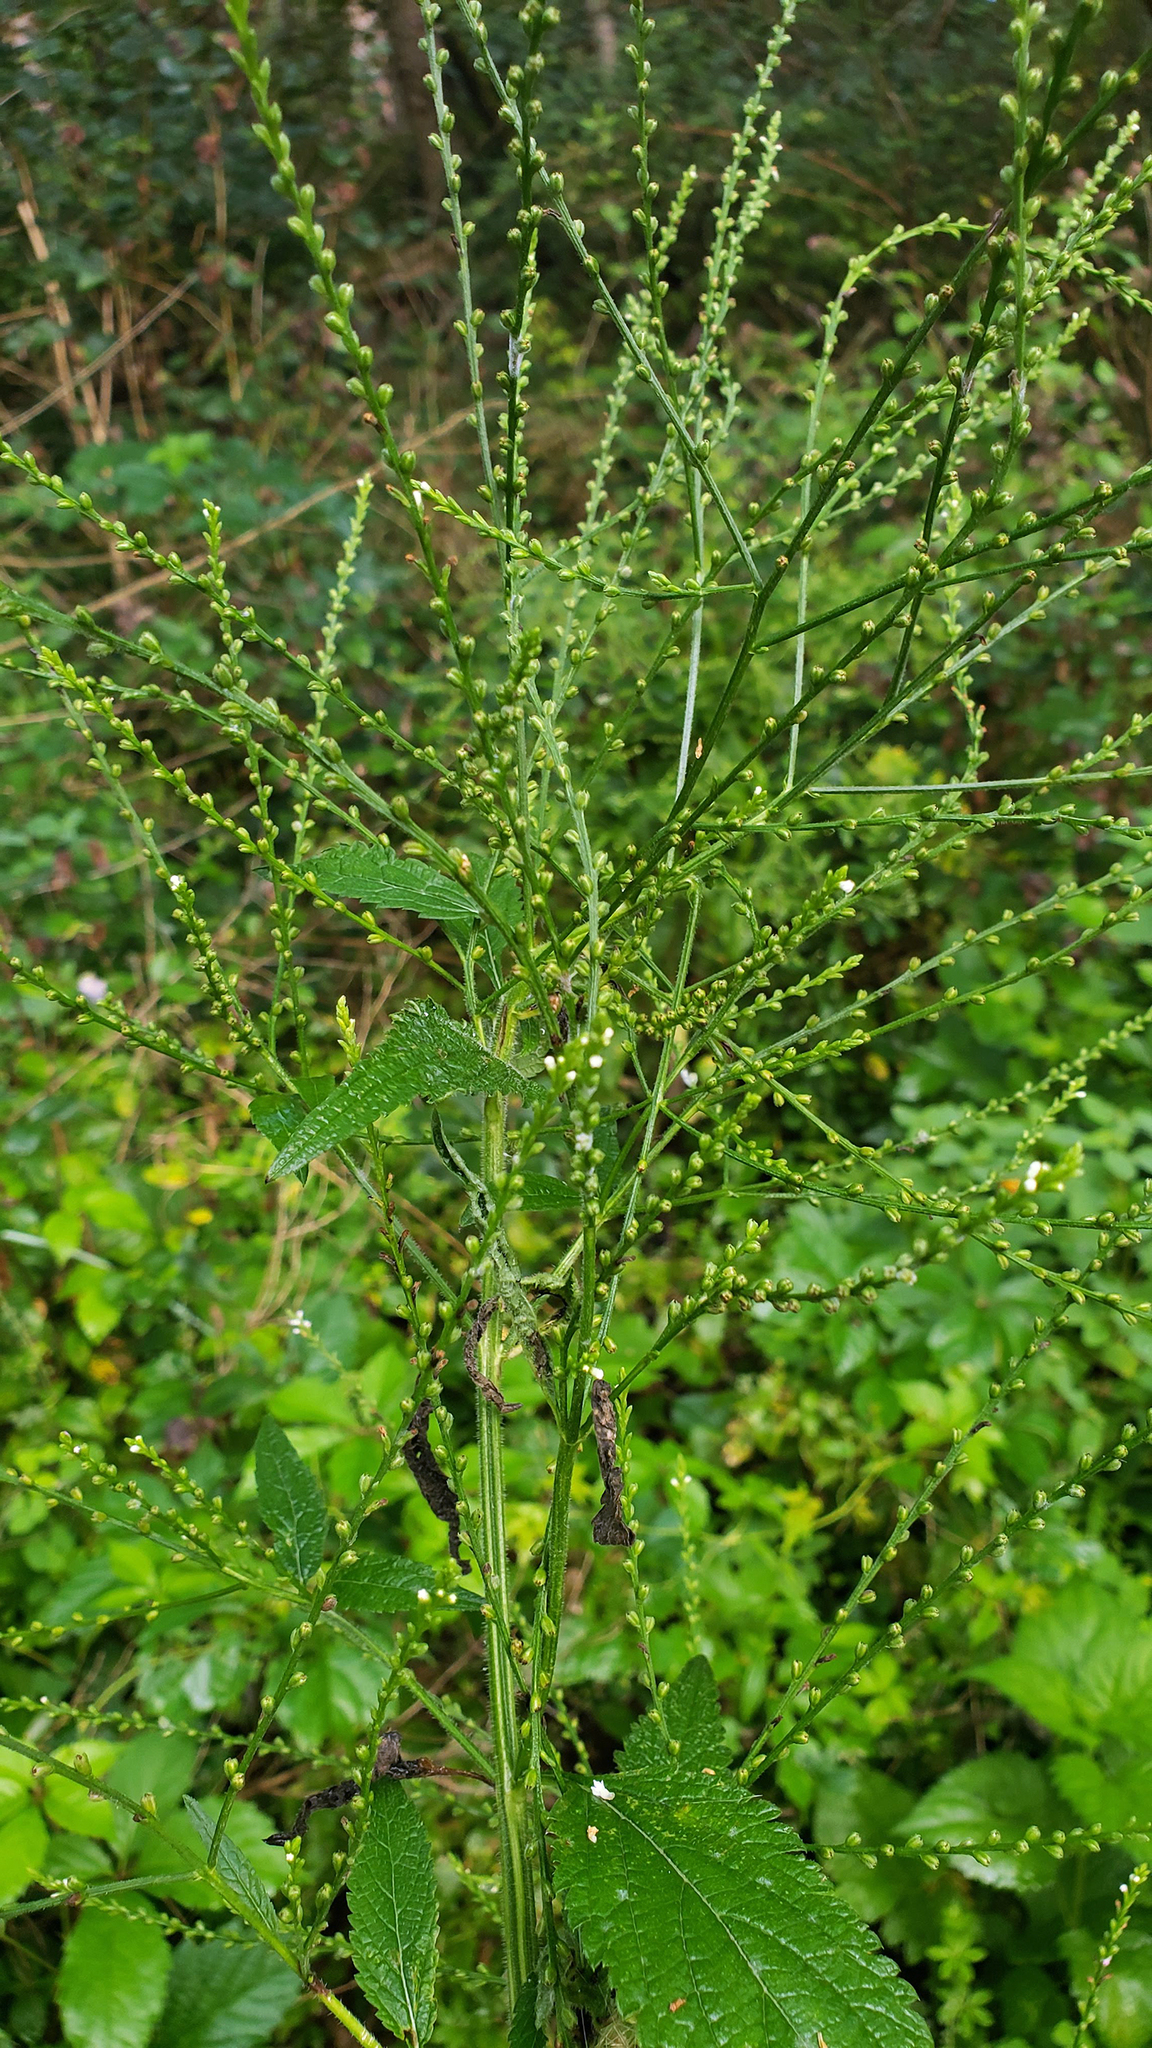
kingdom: Plantae
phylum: Tracheophyta
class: Magnoliopsida
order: Lamiales
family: Verbenaceae
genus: Verbena
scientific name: Verbena urticifolia
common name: Nettle-leaved vervain
